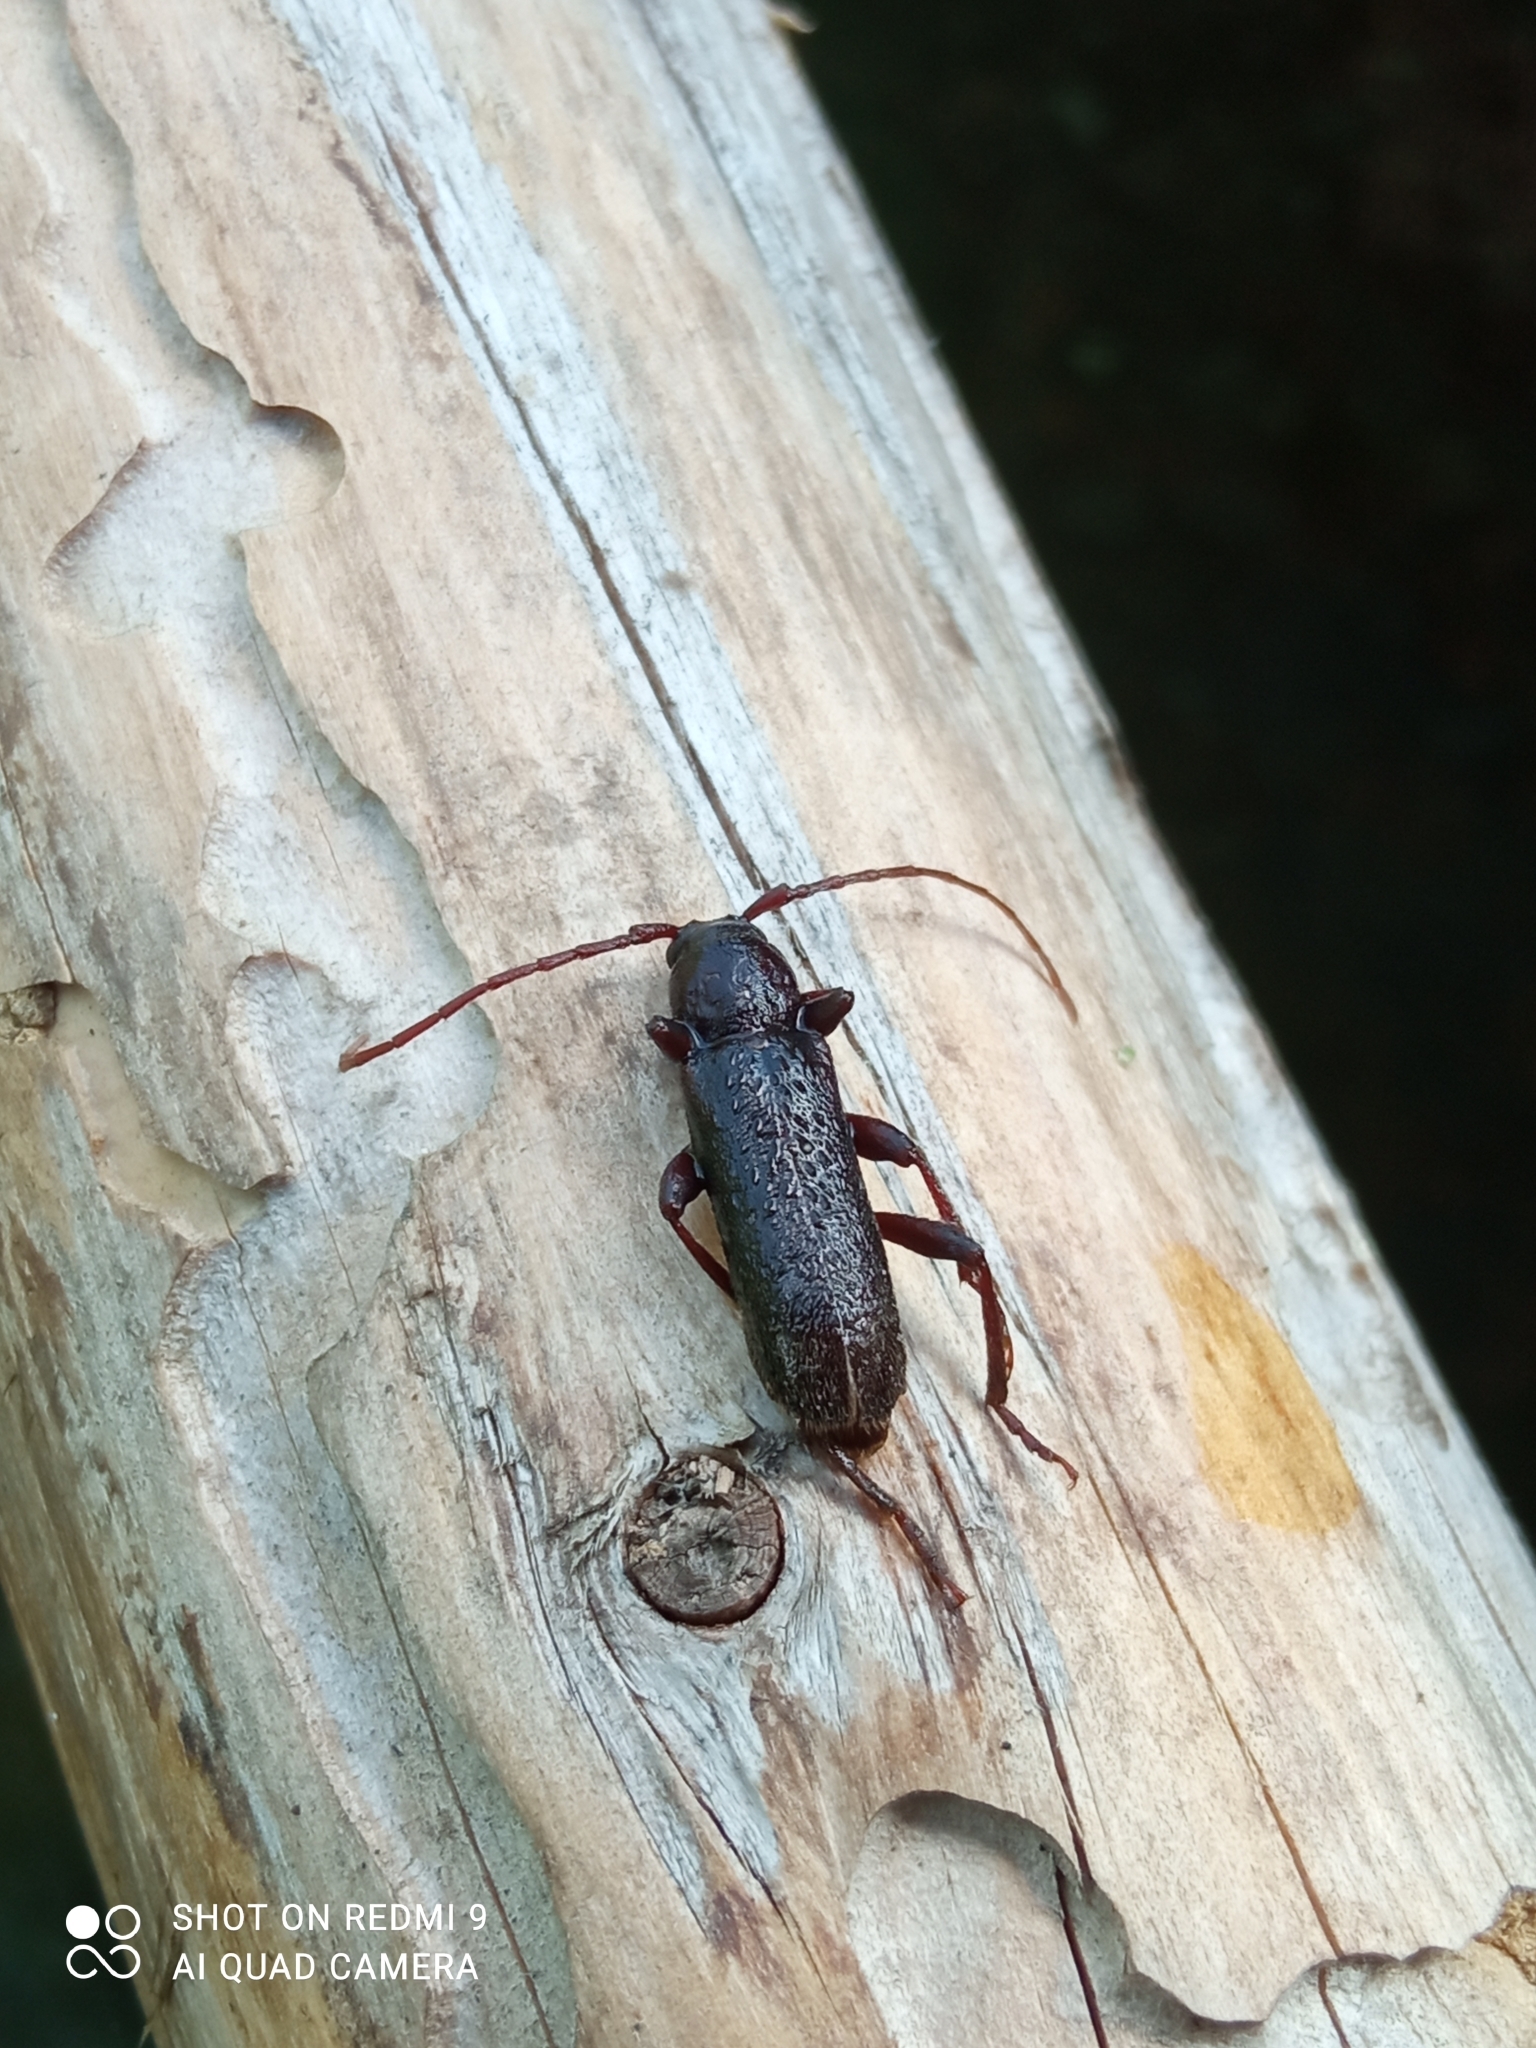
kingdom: Animalia
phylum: Arthropoda
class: Insecta
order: Coleoptera
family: Cerambycidae
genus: Trichoferus
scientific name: Trichoferus campestris
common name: Velvet long horned beetle
